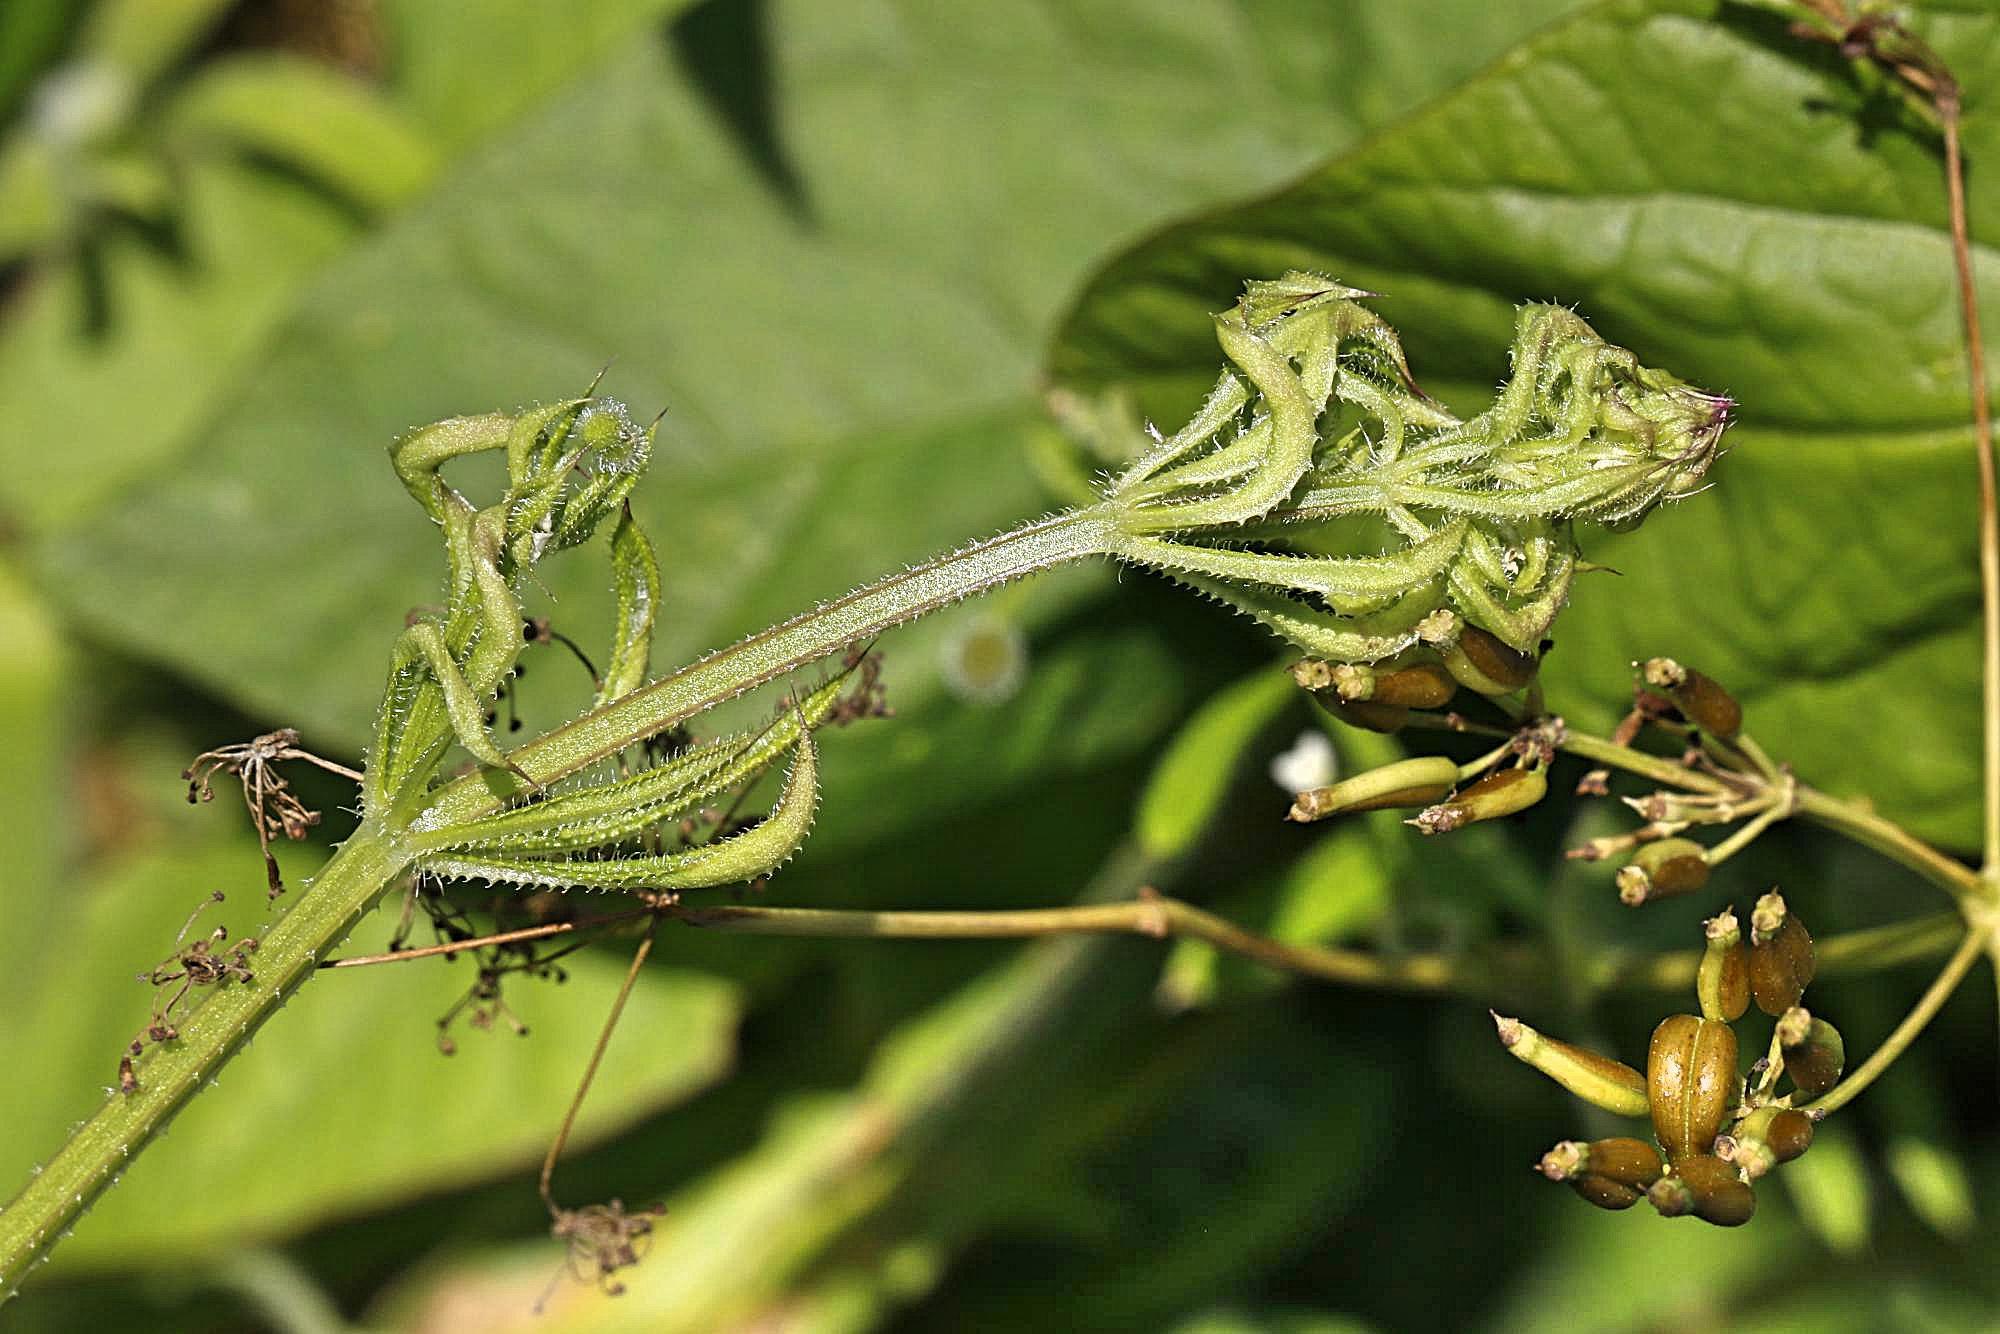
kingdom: Plantae
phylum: Tracheophyta
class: Magnoliopsida
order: Gentianales
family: Rubiaceae
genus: Galium
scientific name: Galium aparine
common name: Cleavers
